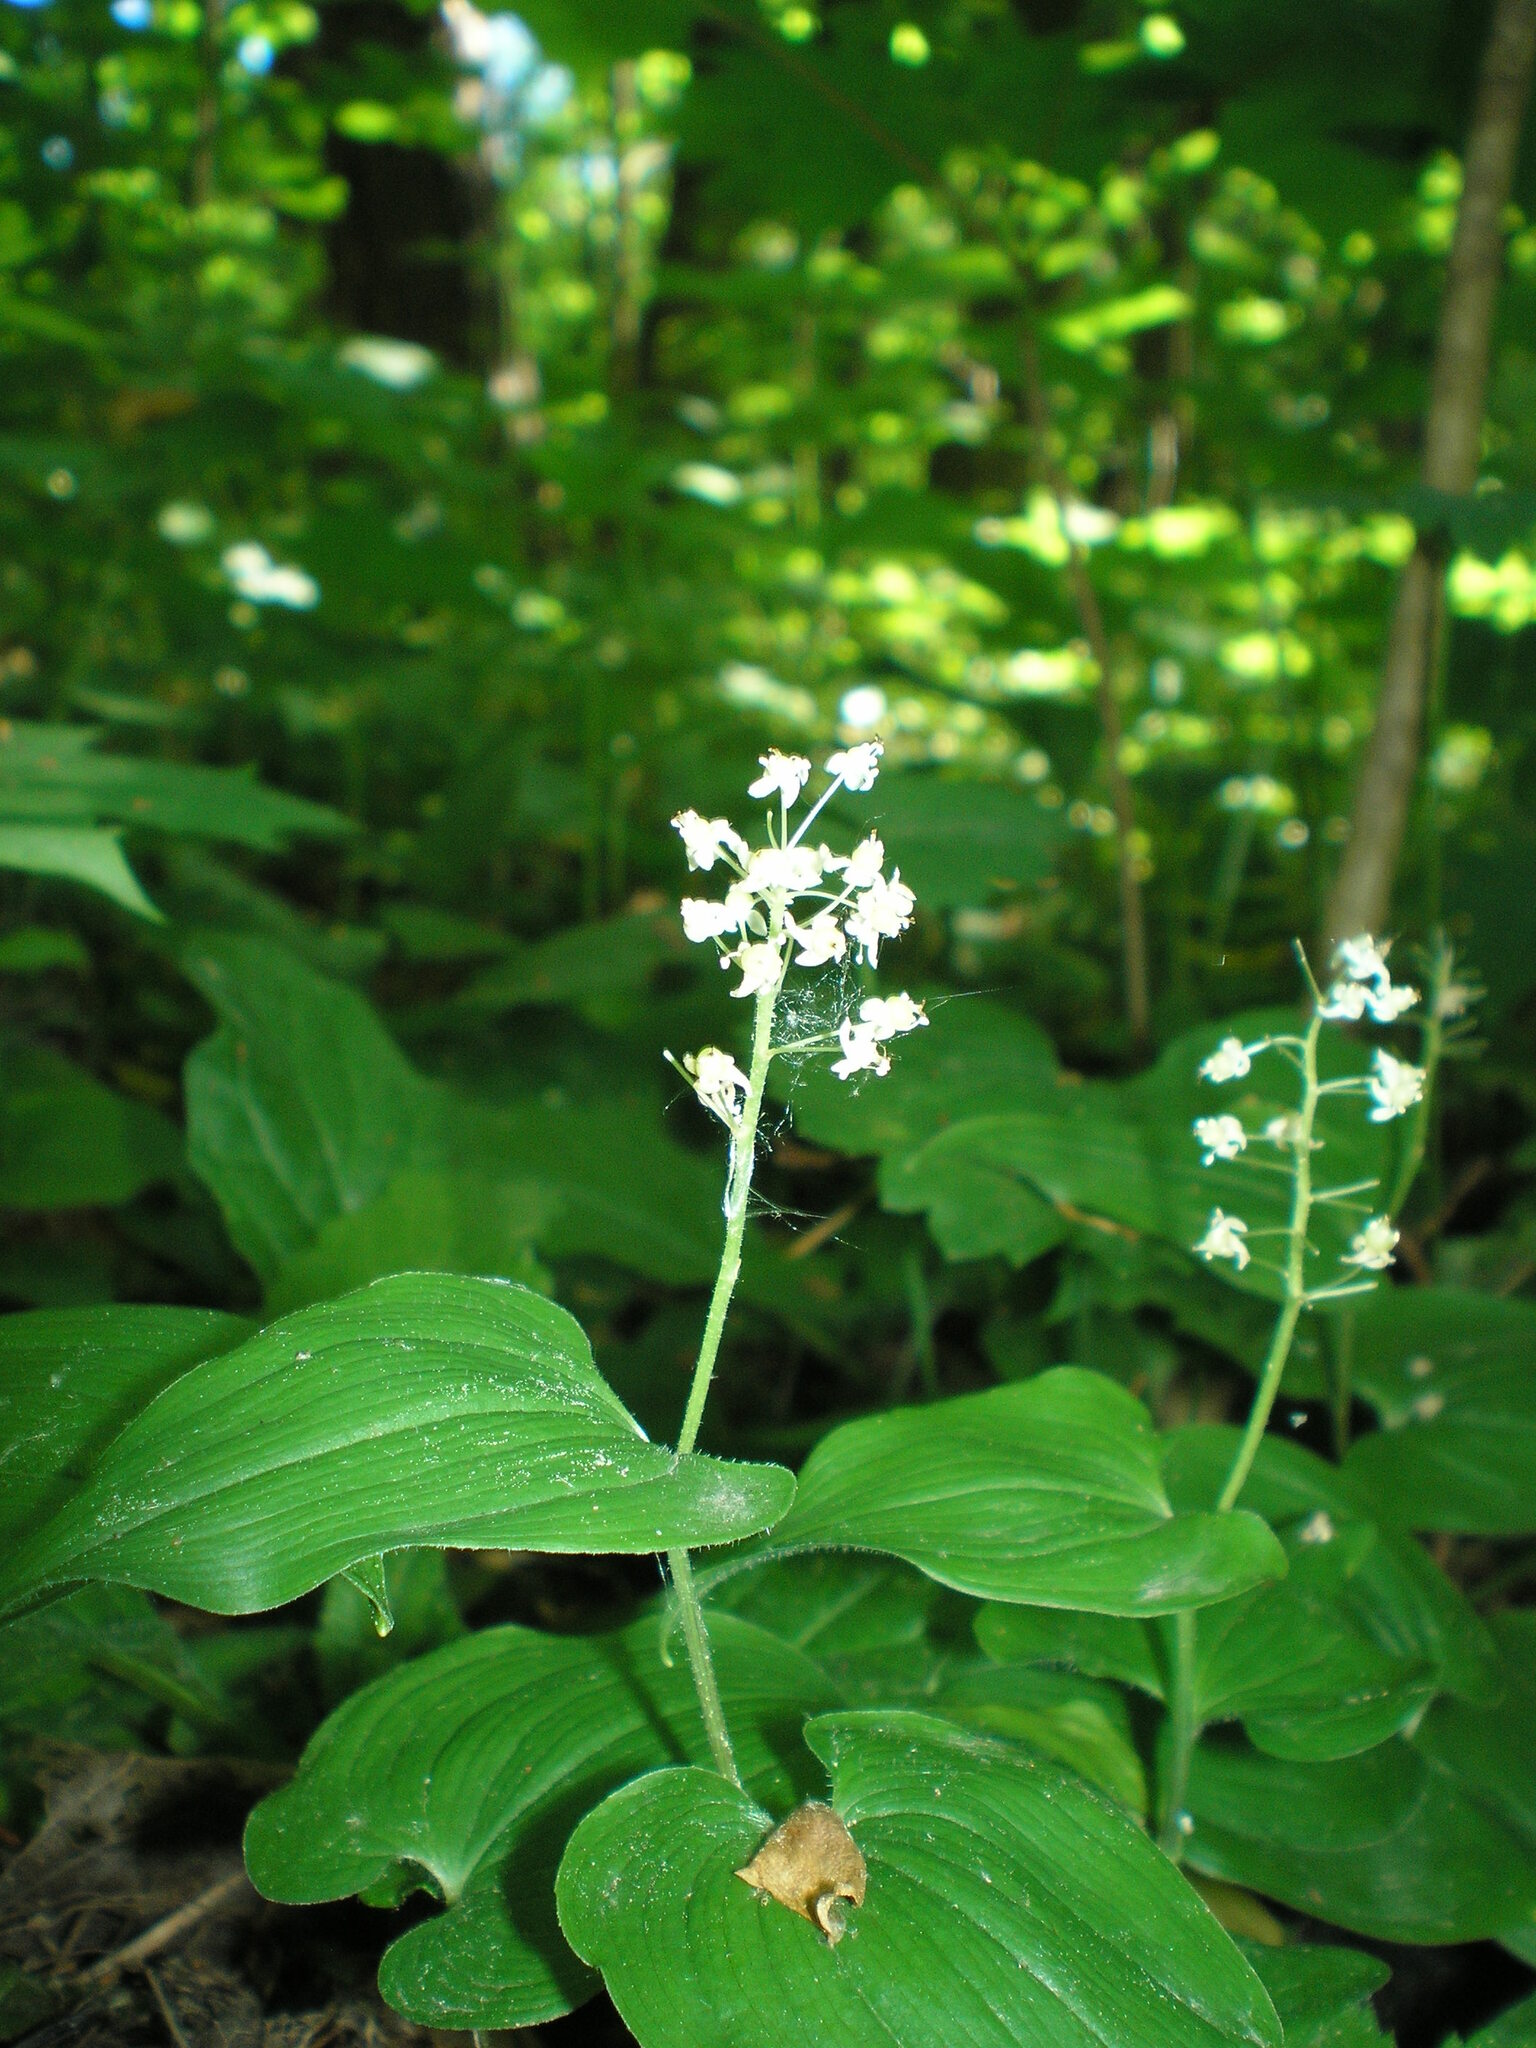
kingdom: Plantae
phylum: Tracheophyta
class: Liliopsida
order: Asparagales
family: Asparagaceae
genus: Maianthemum
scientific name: Maianthemum bifolium
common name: May lily
